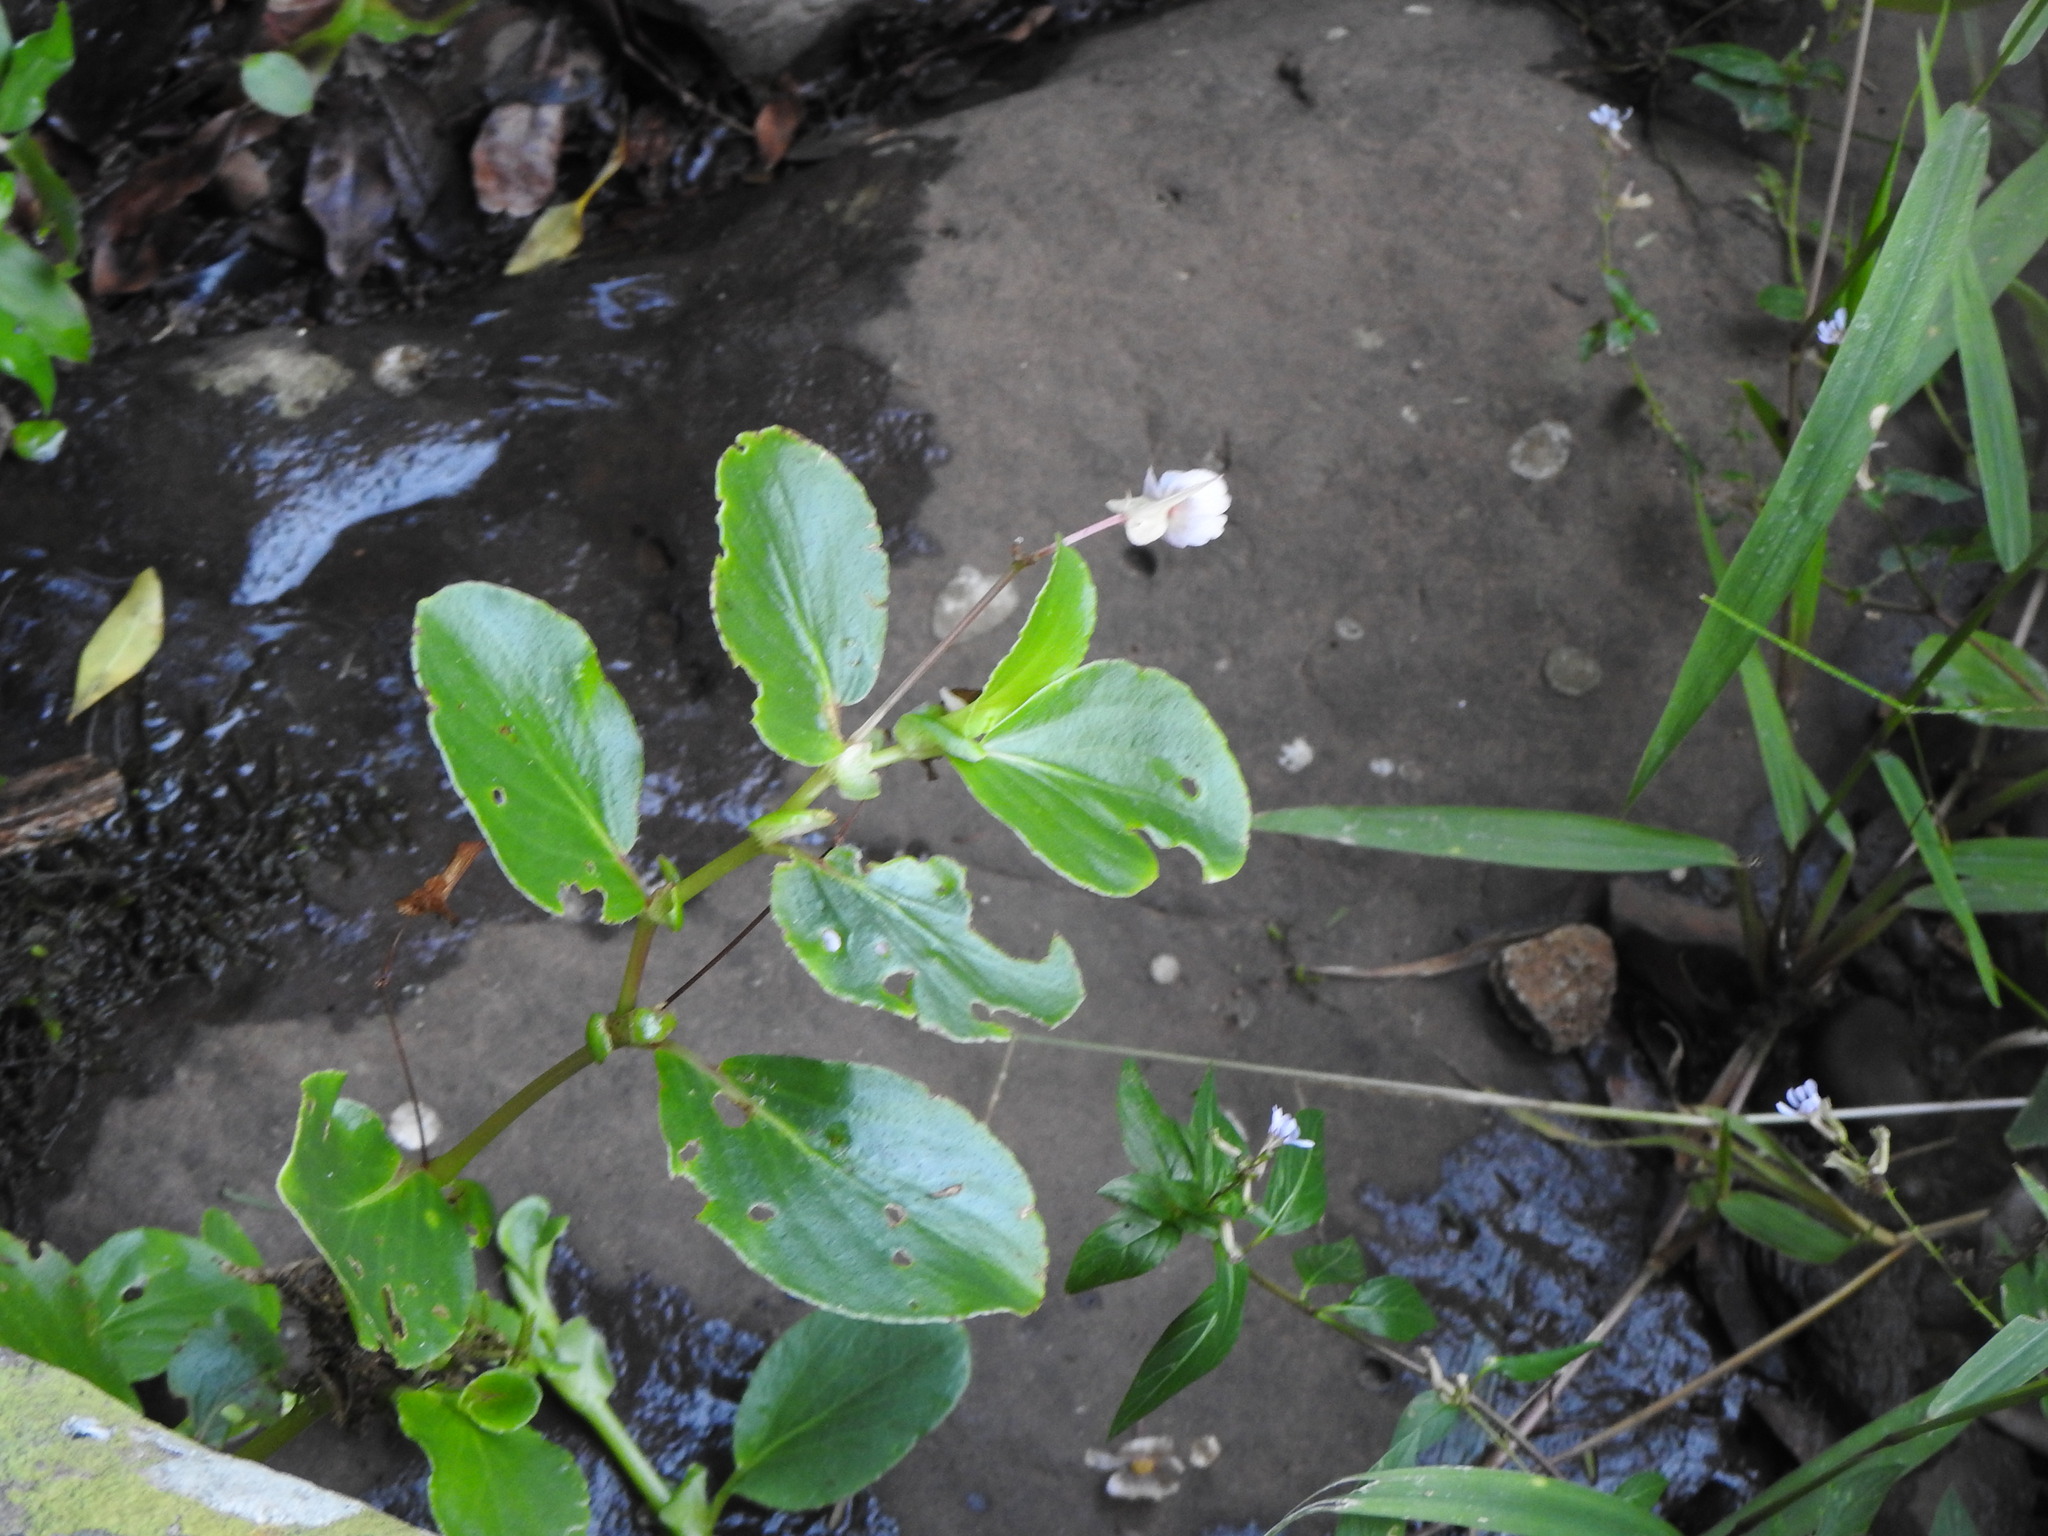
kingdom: Plantae
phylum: Tracheophyta
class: Magnoliopsida
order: Cucurbitales
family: Begoniaceae
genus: Begonia
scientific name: Begonia cucullata
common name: Clubbed begonia
